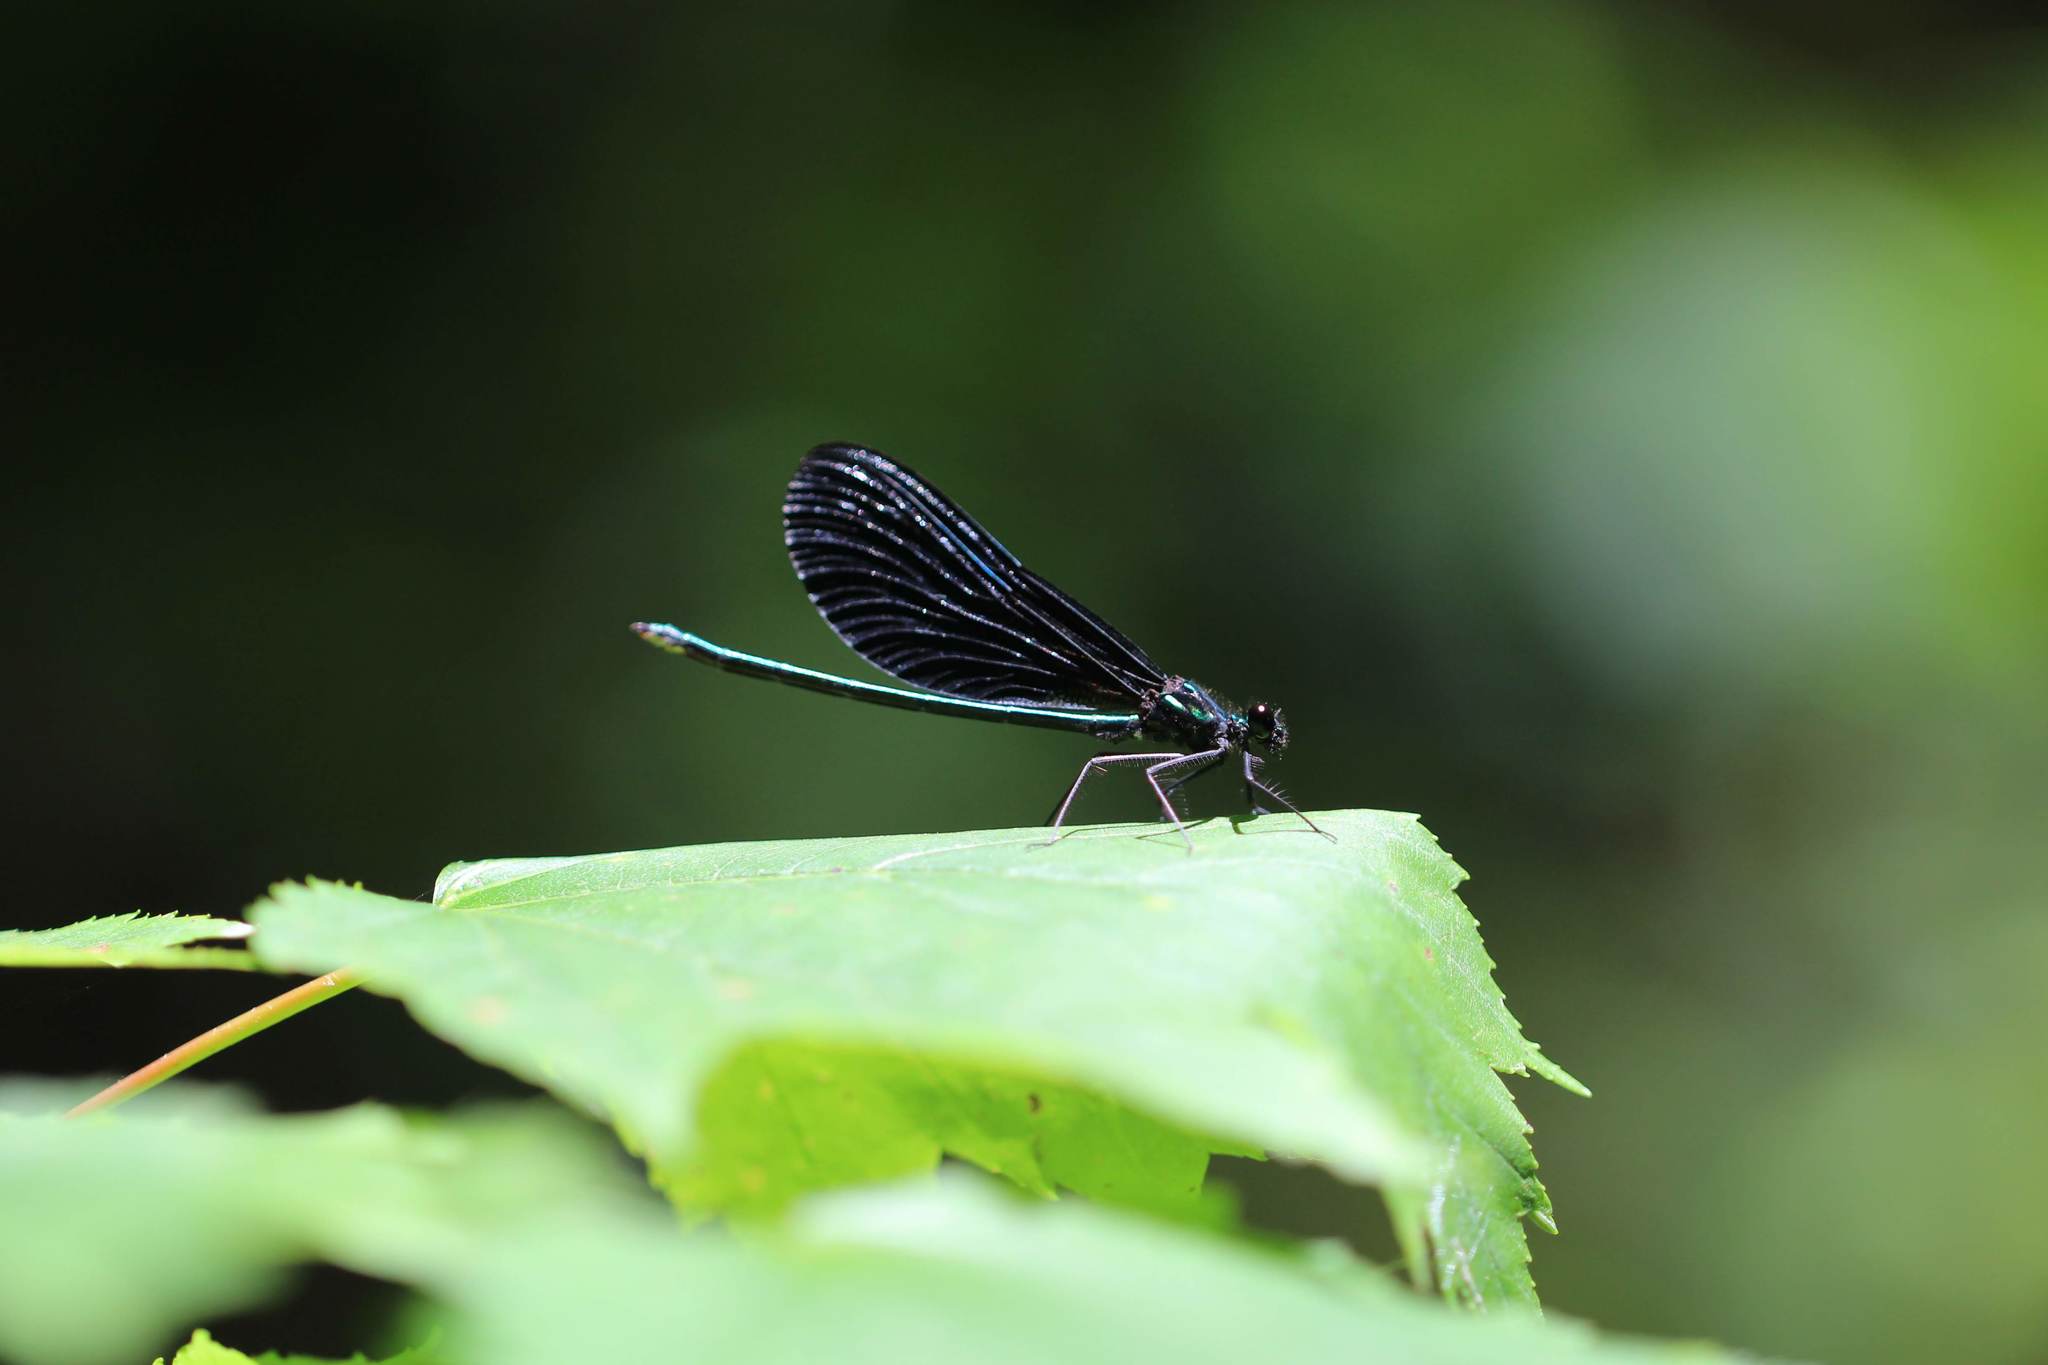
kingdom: Animalia
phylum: Arthropoda
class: Insecta
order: Odonata
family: Calopterygidae
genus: Calopteryx
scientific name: Calopteryx maculata
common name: Ebony jewelwing
